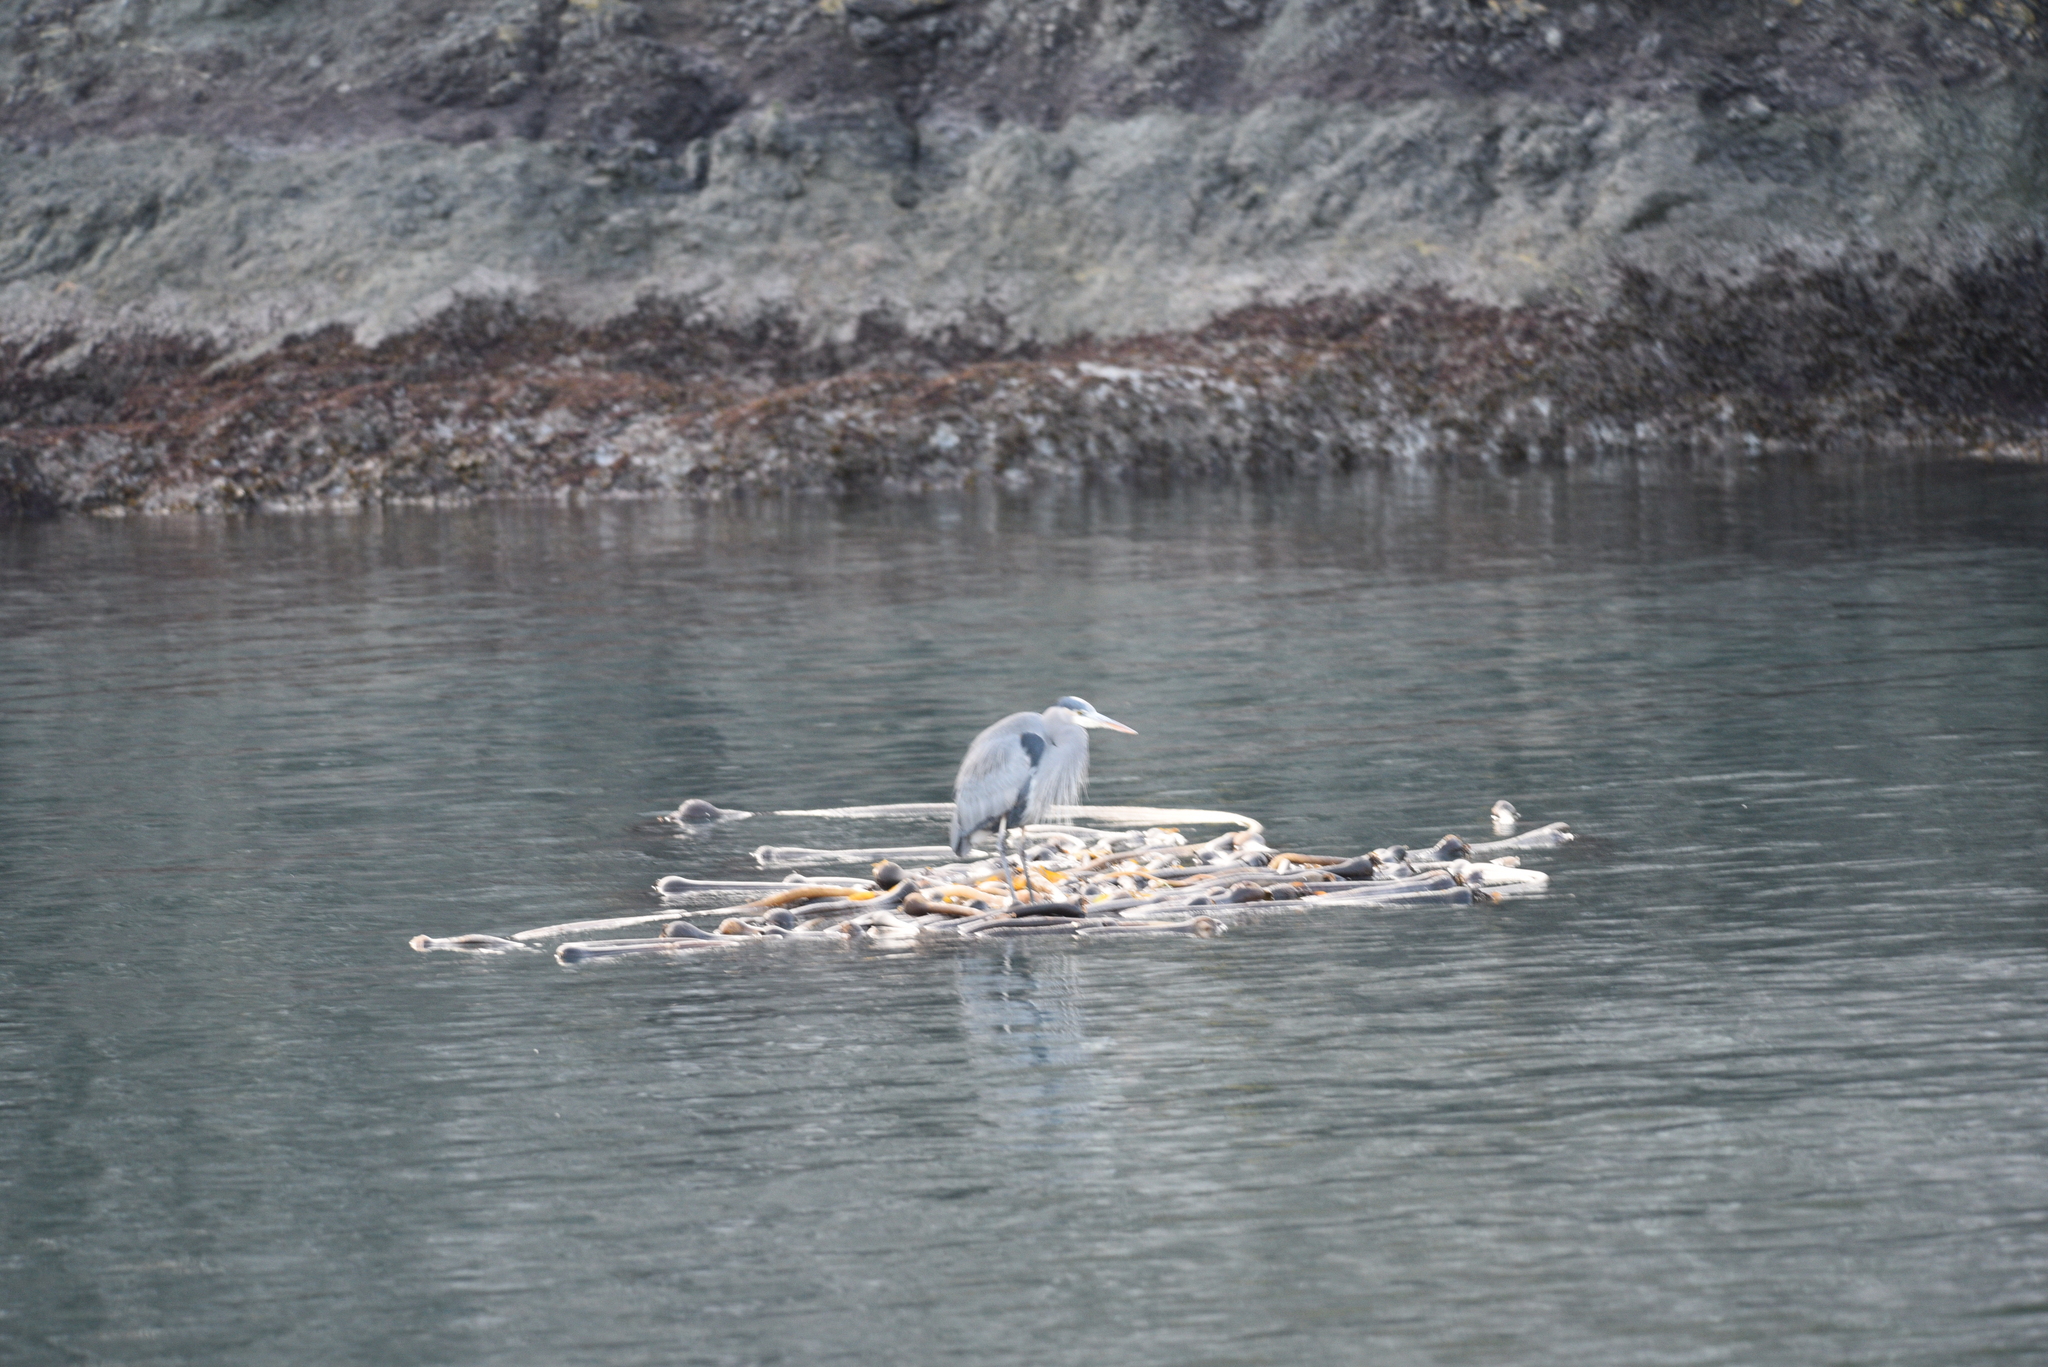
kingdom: Animalia
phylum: Chordata
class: Aves
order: Pelecaniformes
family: Ardeidae
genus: Ardea
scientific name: Ardea herodias
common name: Great blue heron
